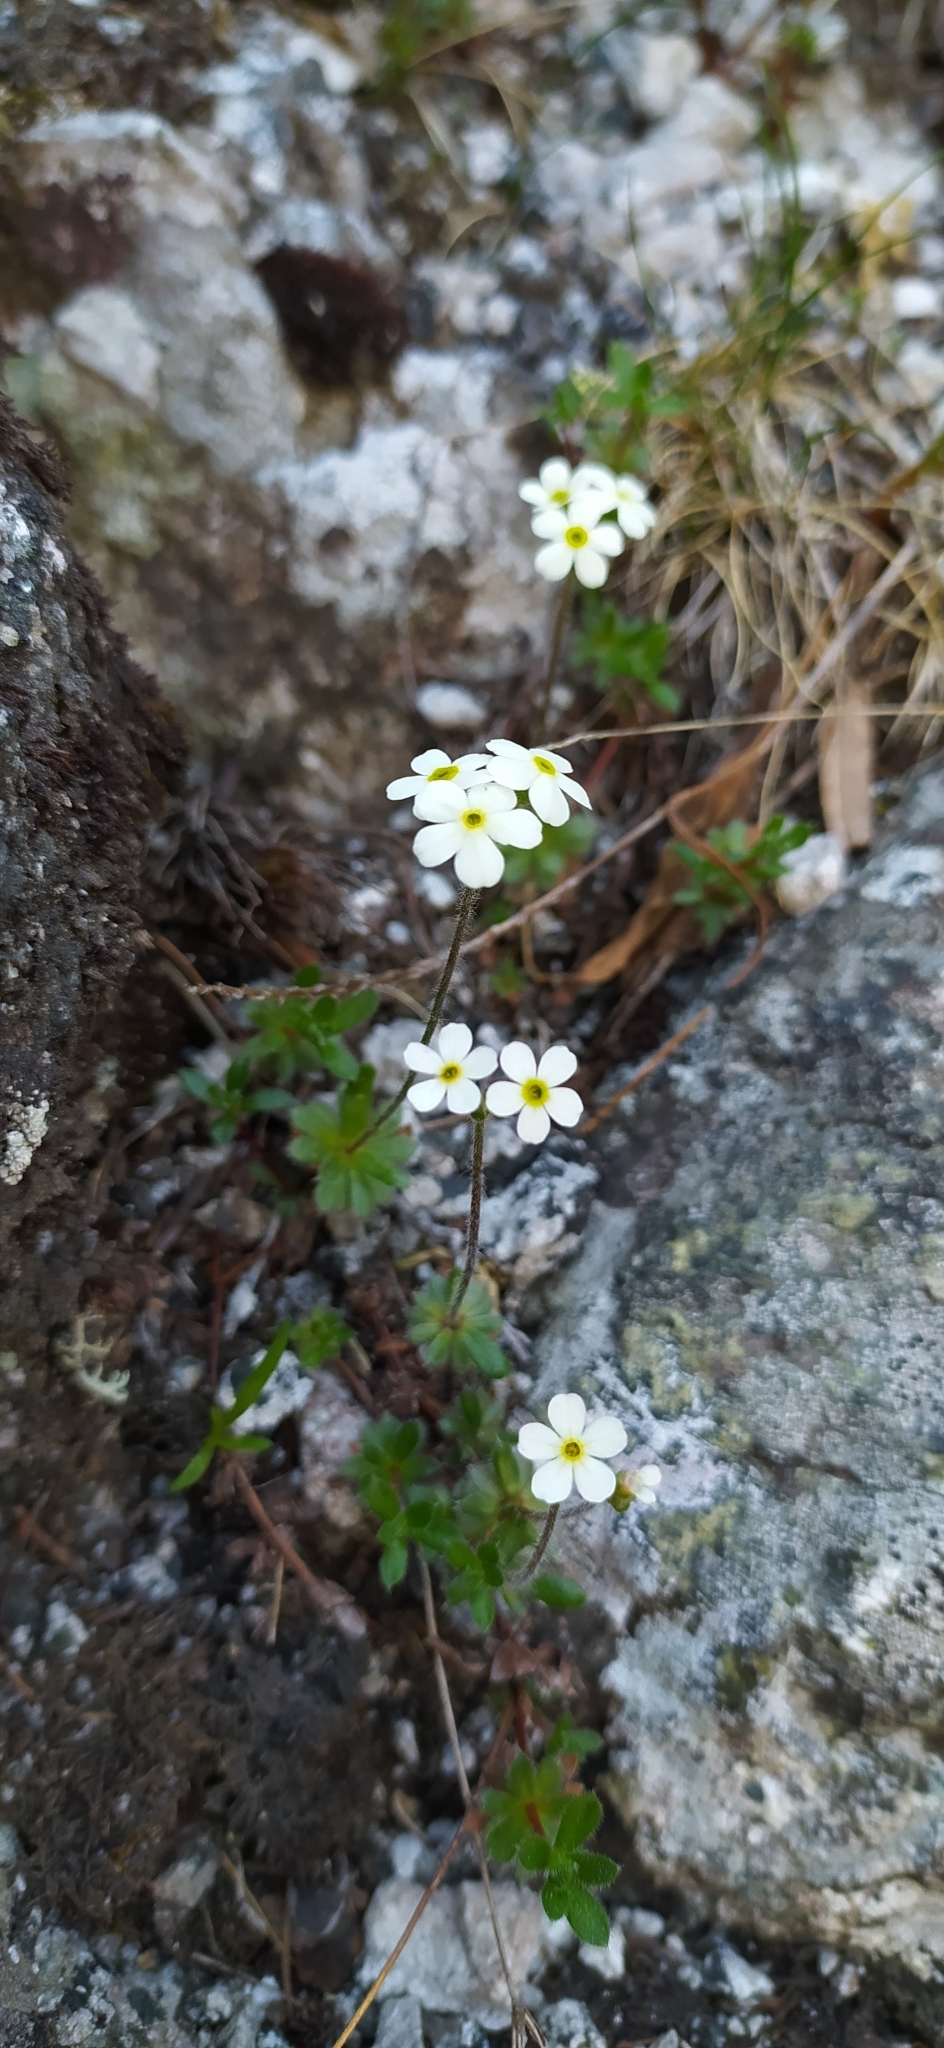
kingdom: Plantae
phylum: Tracheophyta
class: Magnoliopsida
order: Ericales
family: Primulaceae
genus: Androsace
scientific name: Androsace chamaejasme
